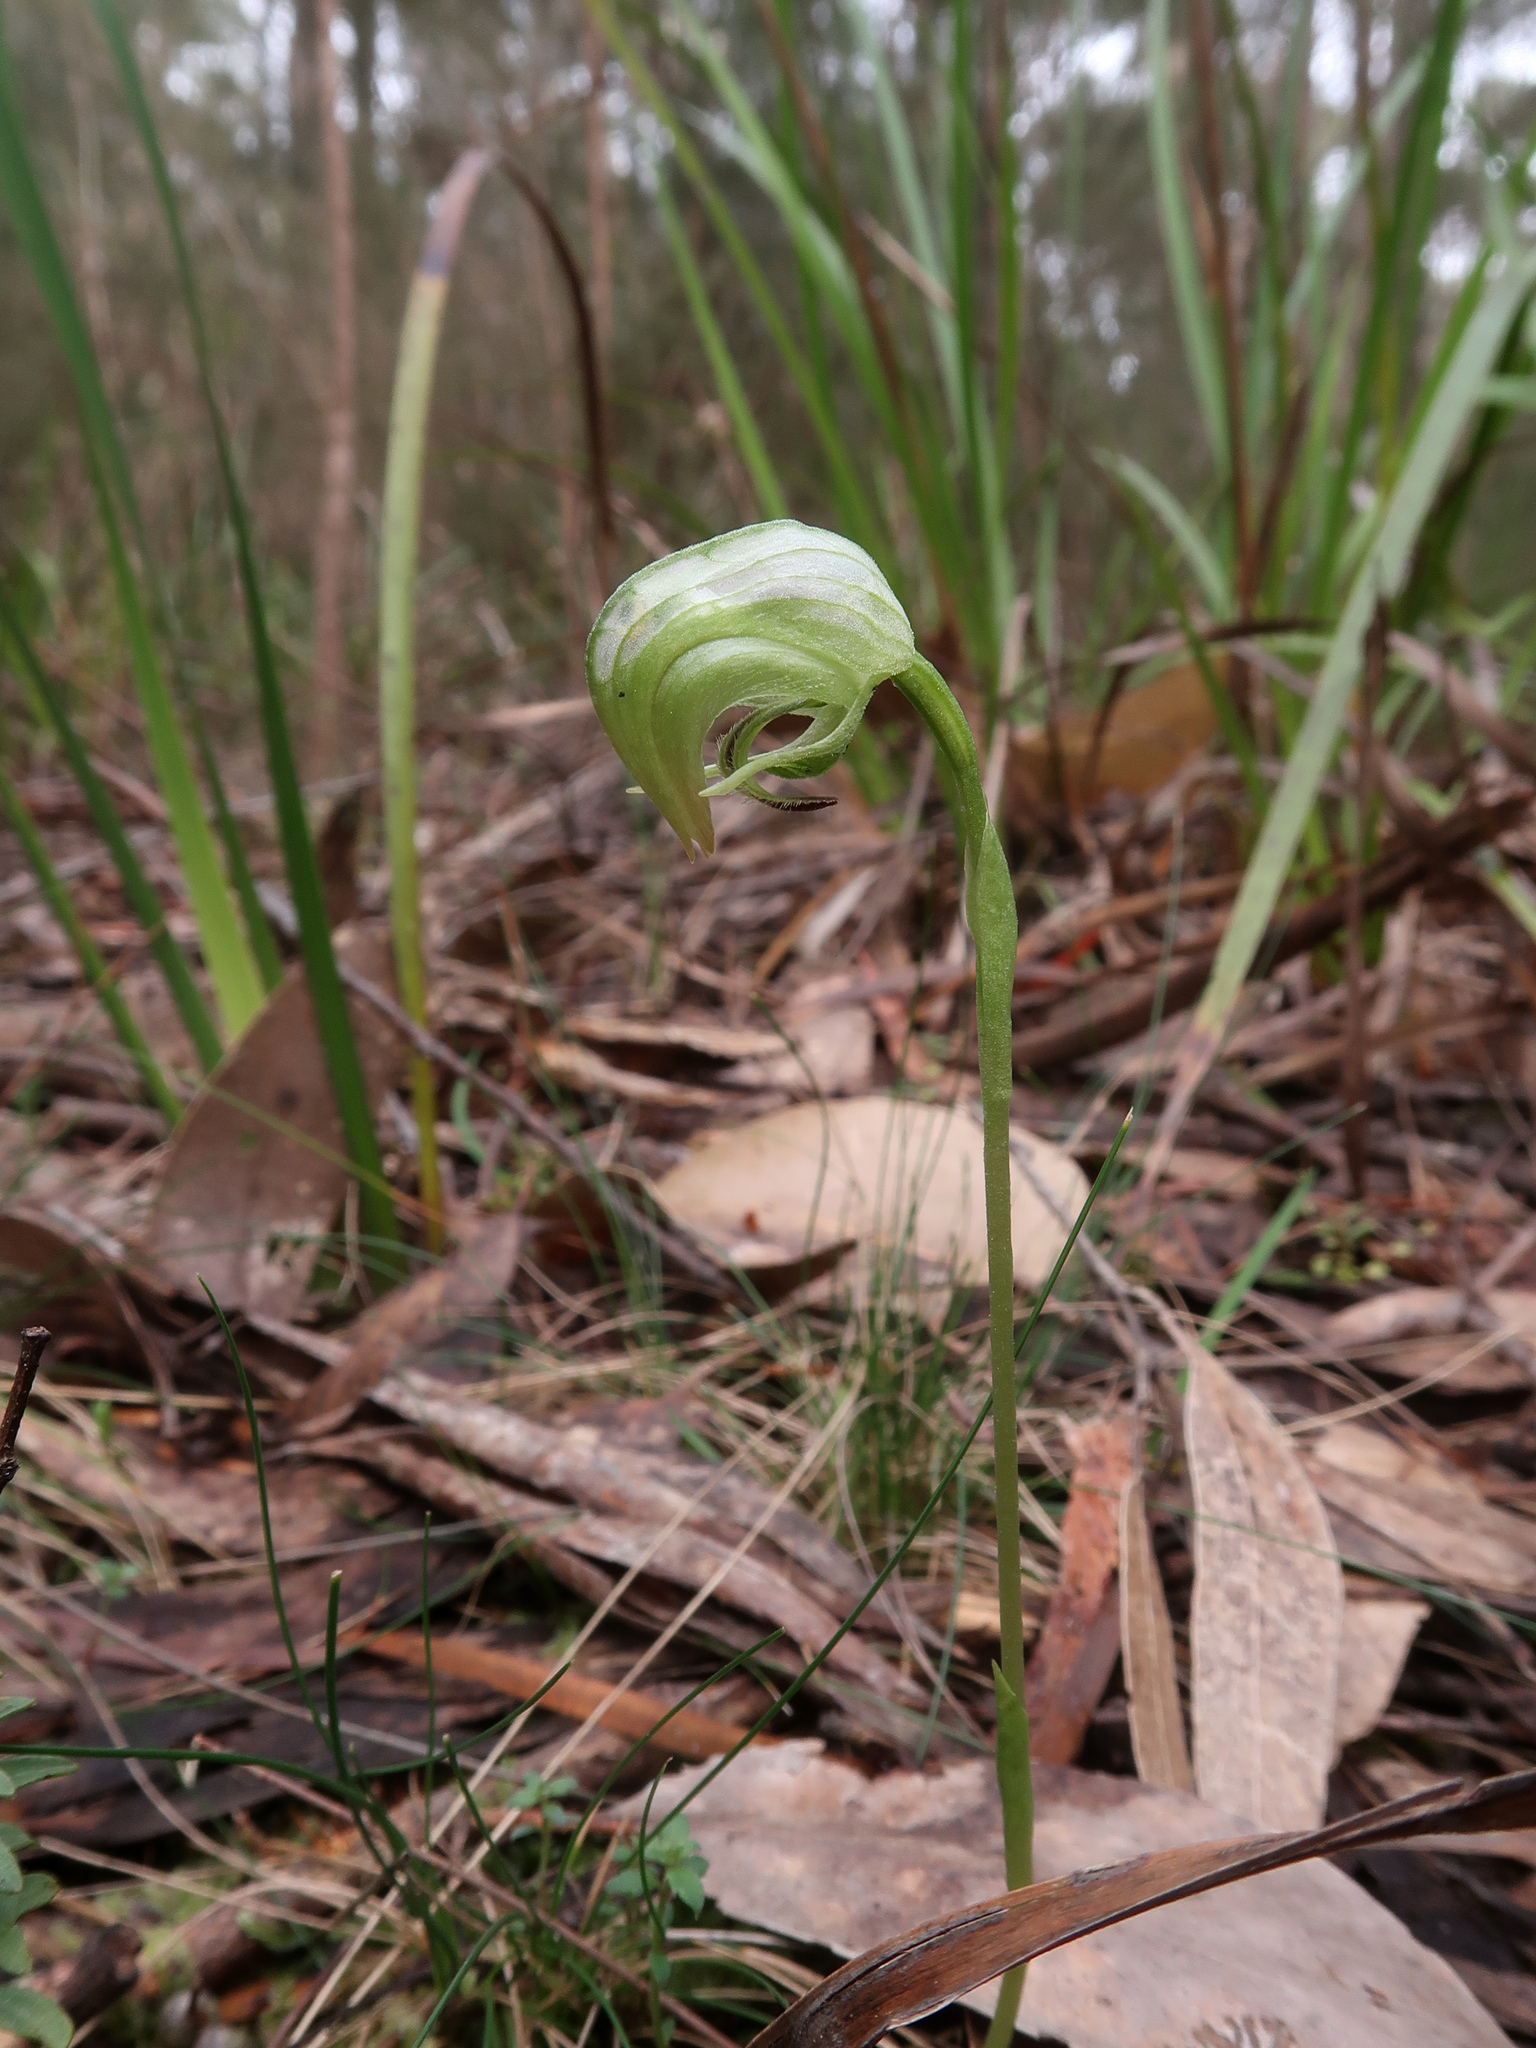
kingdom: Plantae
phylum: Tracheophyta
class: Liliopsida
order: Asparagales
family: Orchidaceae
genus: Pterostylis
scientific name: Pterostylis nutans
